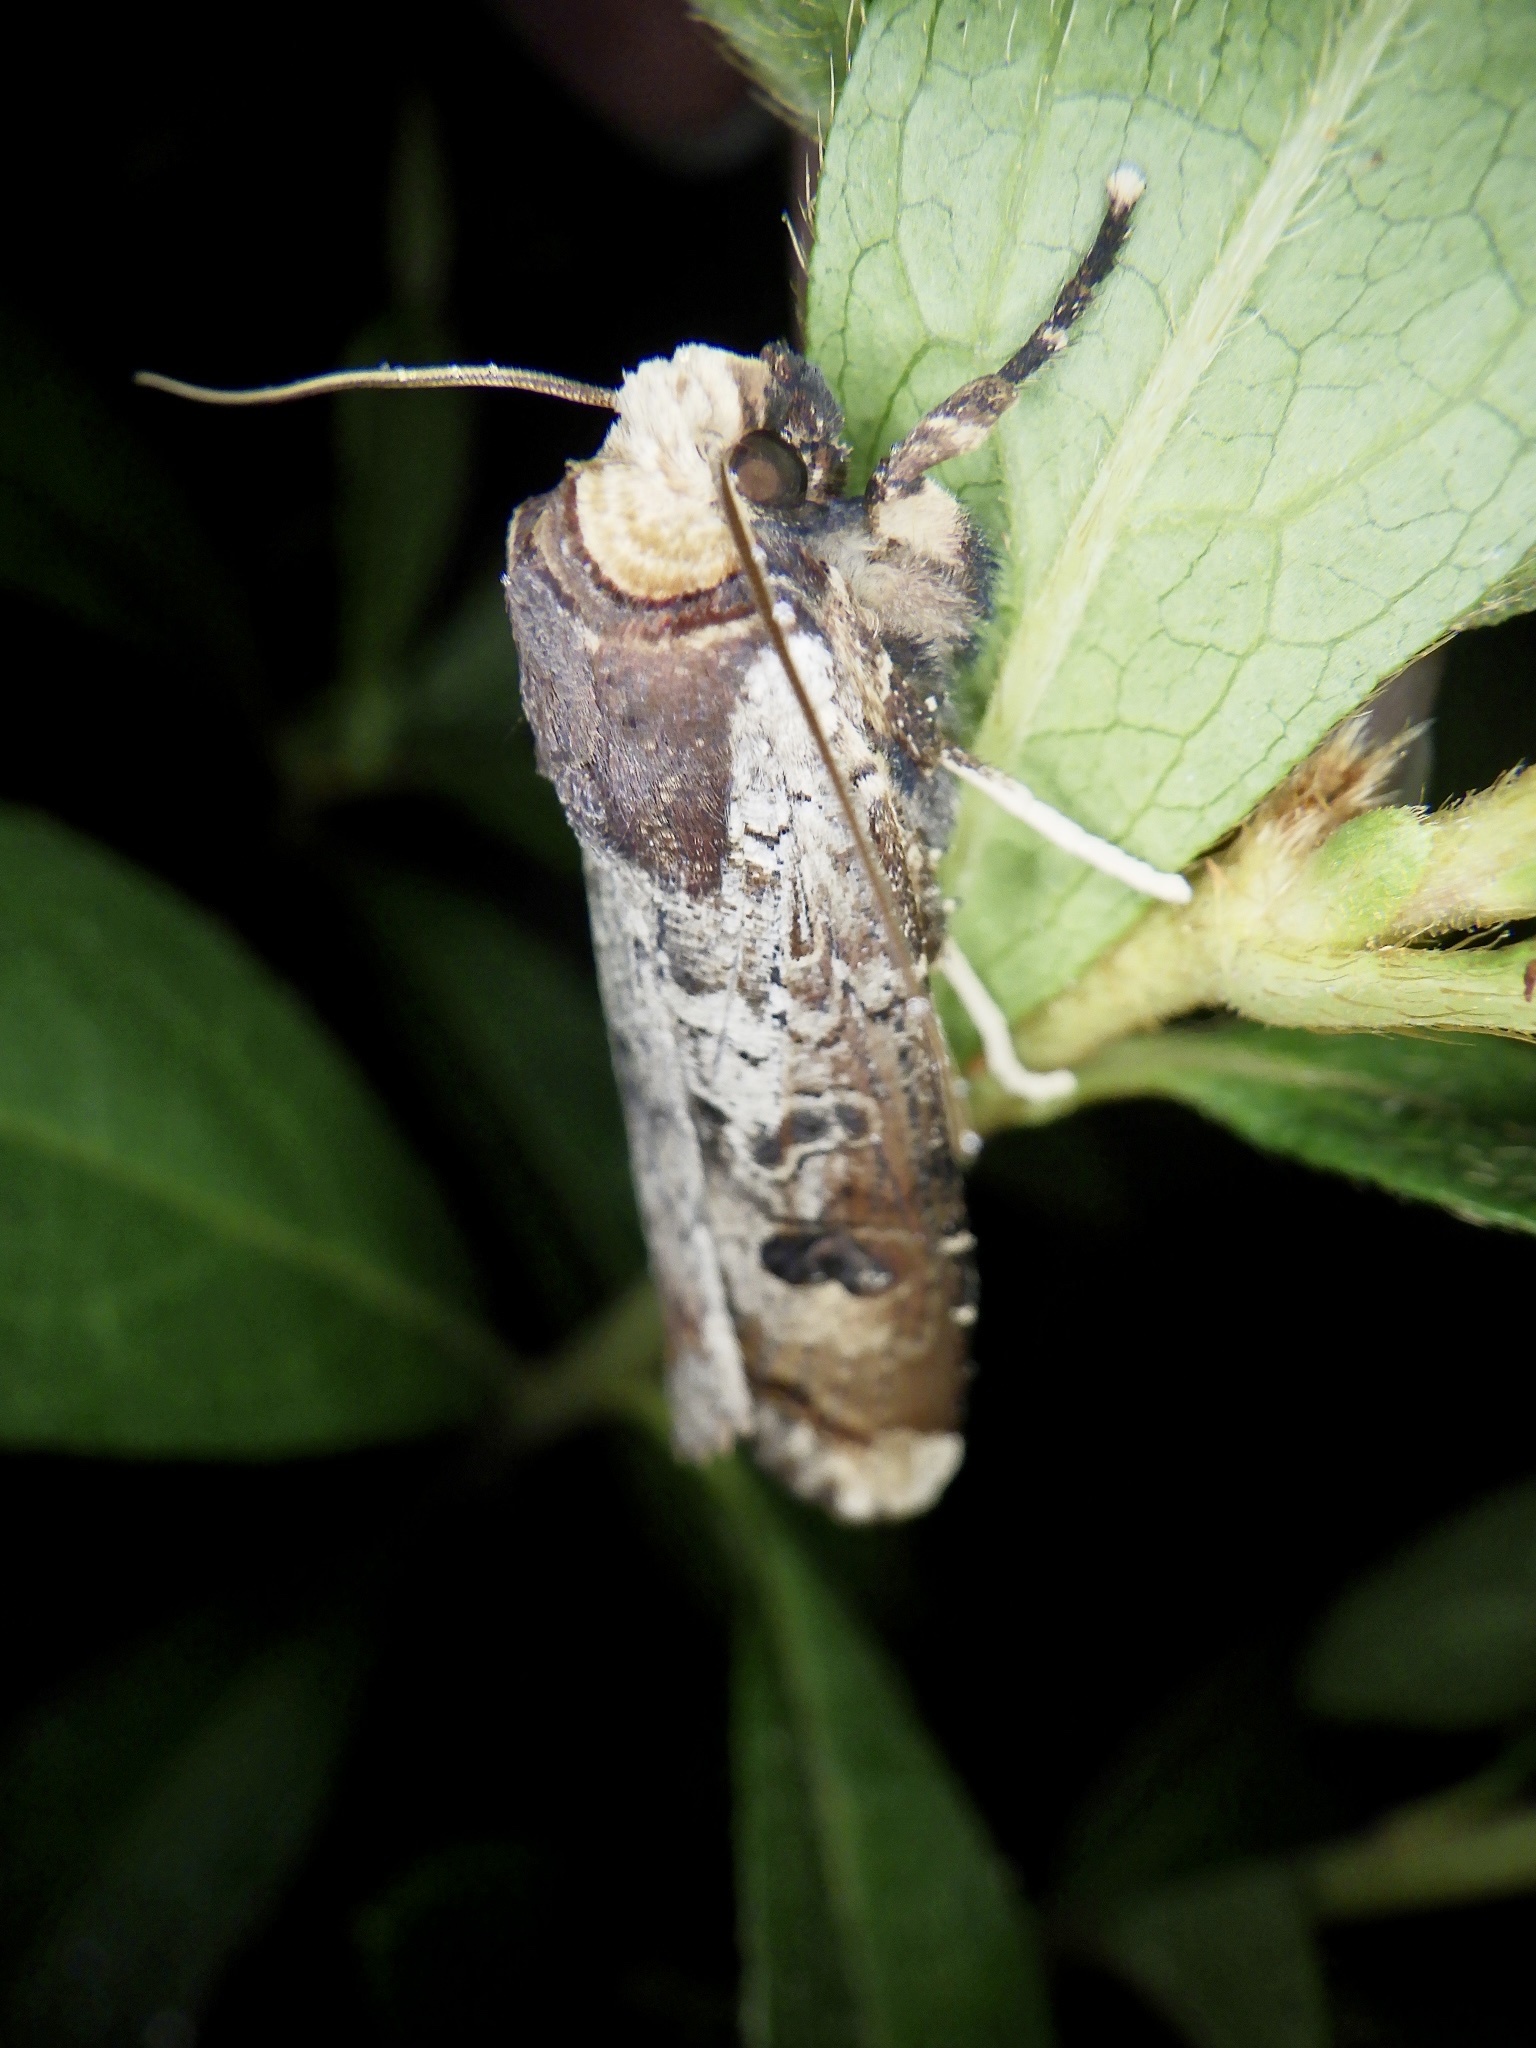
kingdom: Animalia
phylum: Arthropoda
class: Insecta
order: Lepidoptera
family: Noctuidae
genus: Xylena
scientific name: Xylena formosa
